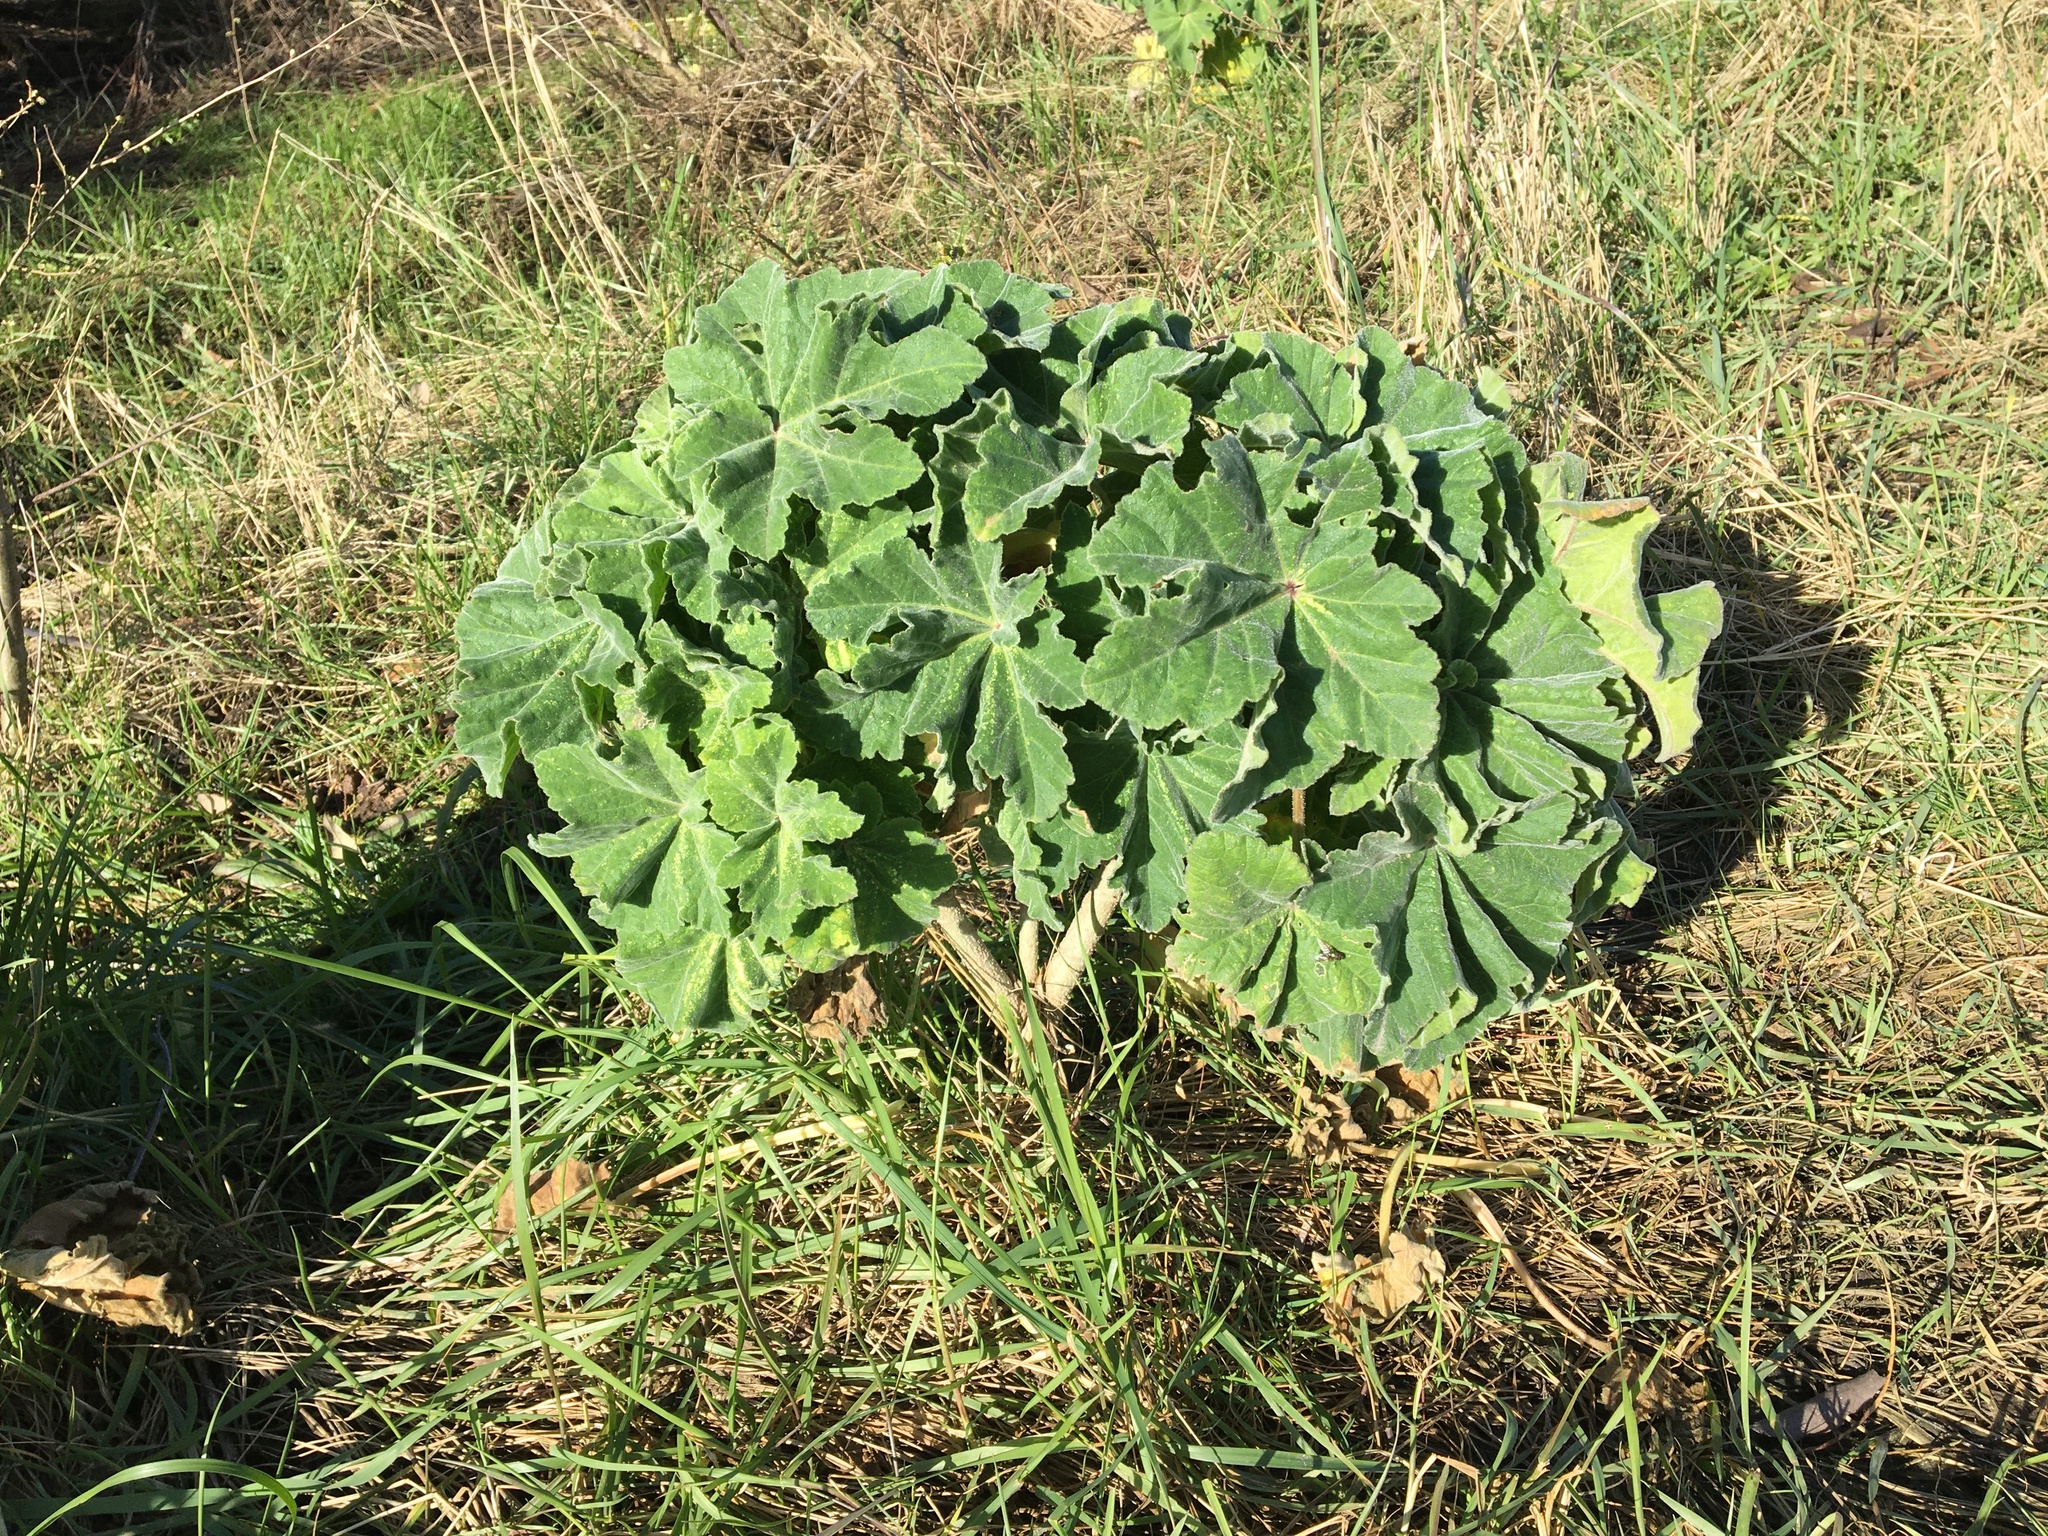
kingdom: Plantae
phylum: Tracheophyta
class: Magnoliopsida
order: Malvales
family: Malvaceae
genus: Malva
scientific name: Malva arborea
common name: Tree mallow
